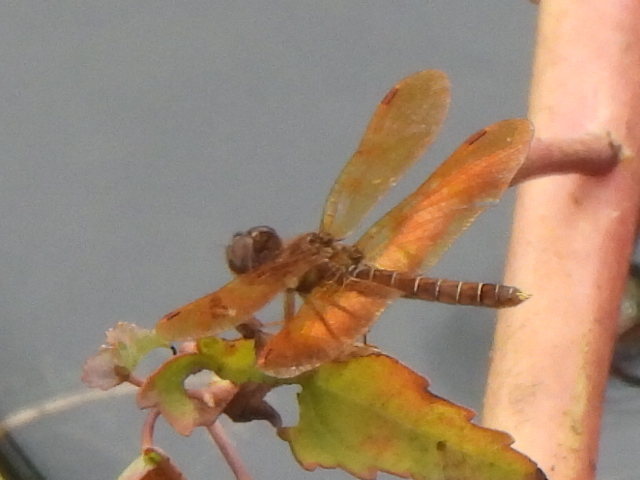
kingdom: Animalia
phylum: Arthropoda
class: Insecta
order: Odonata
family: Libellulidae
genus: Perithemis
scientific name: Perithemis tenera
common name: Eastern amberwing
